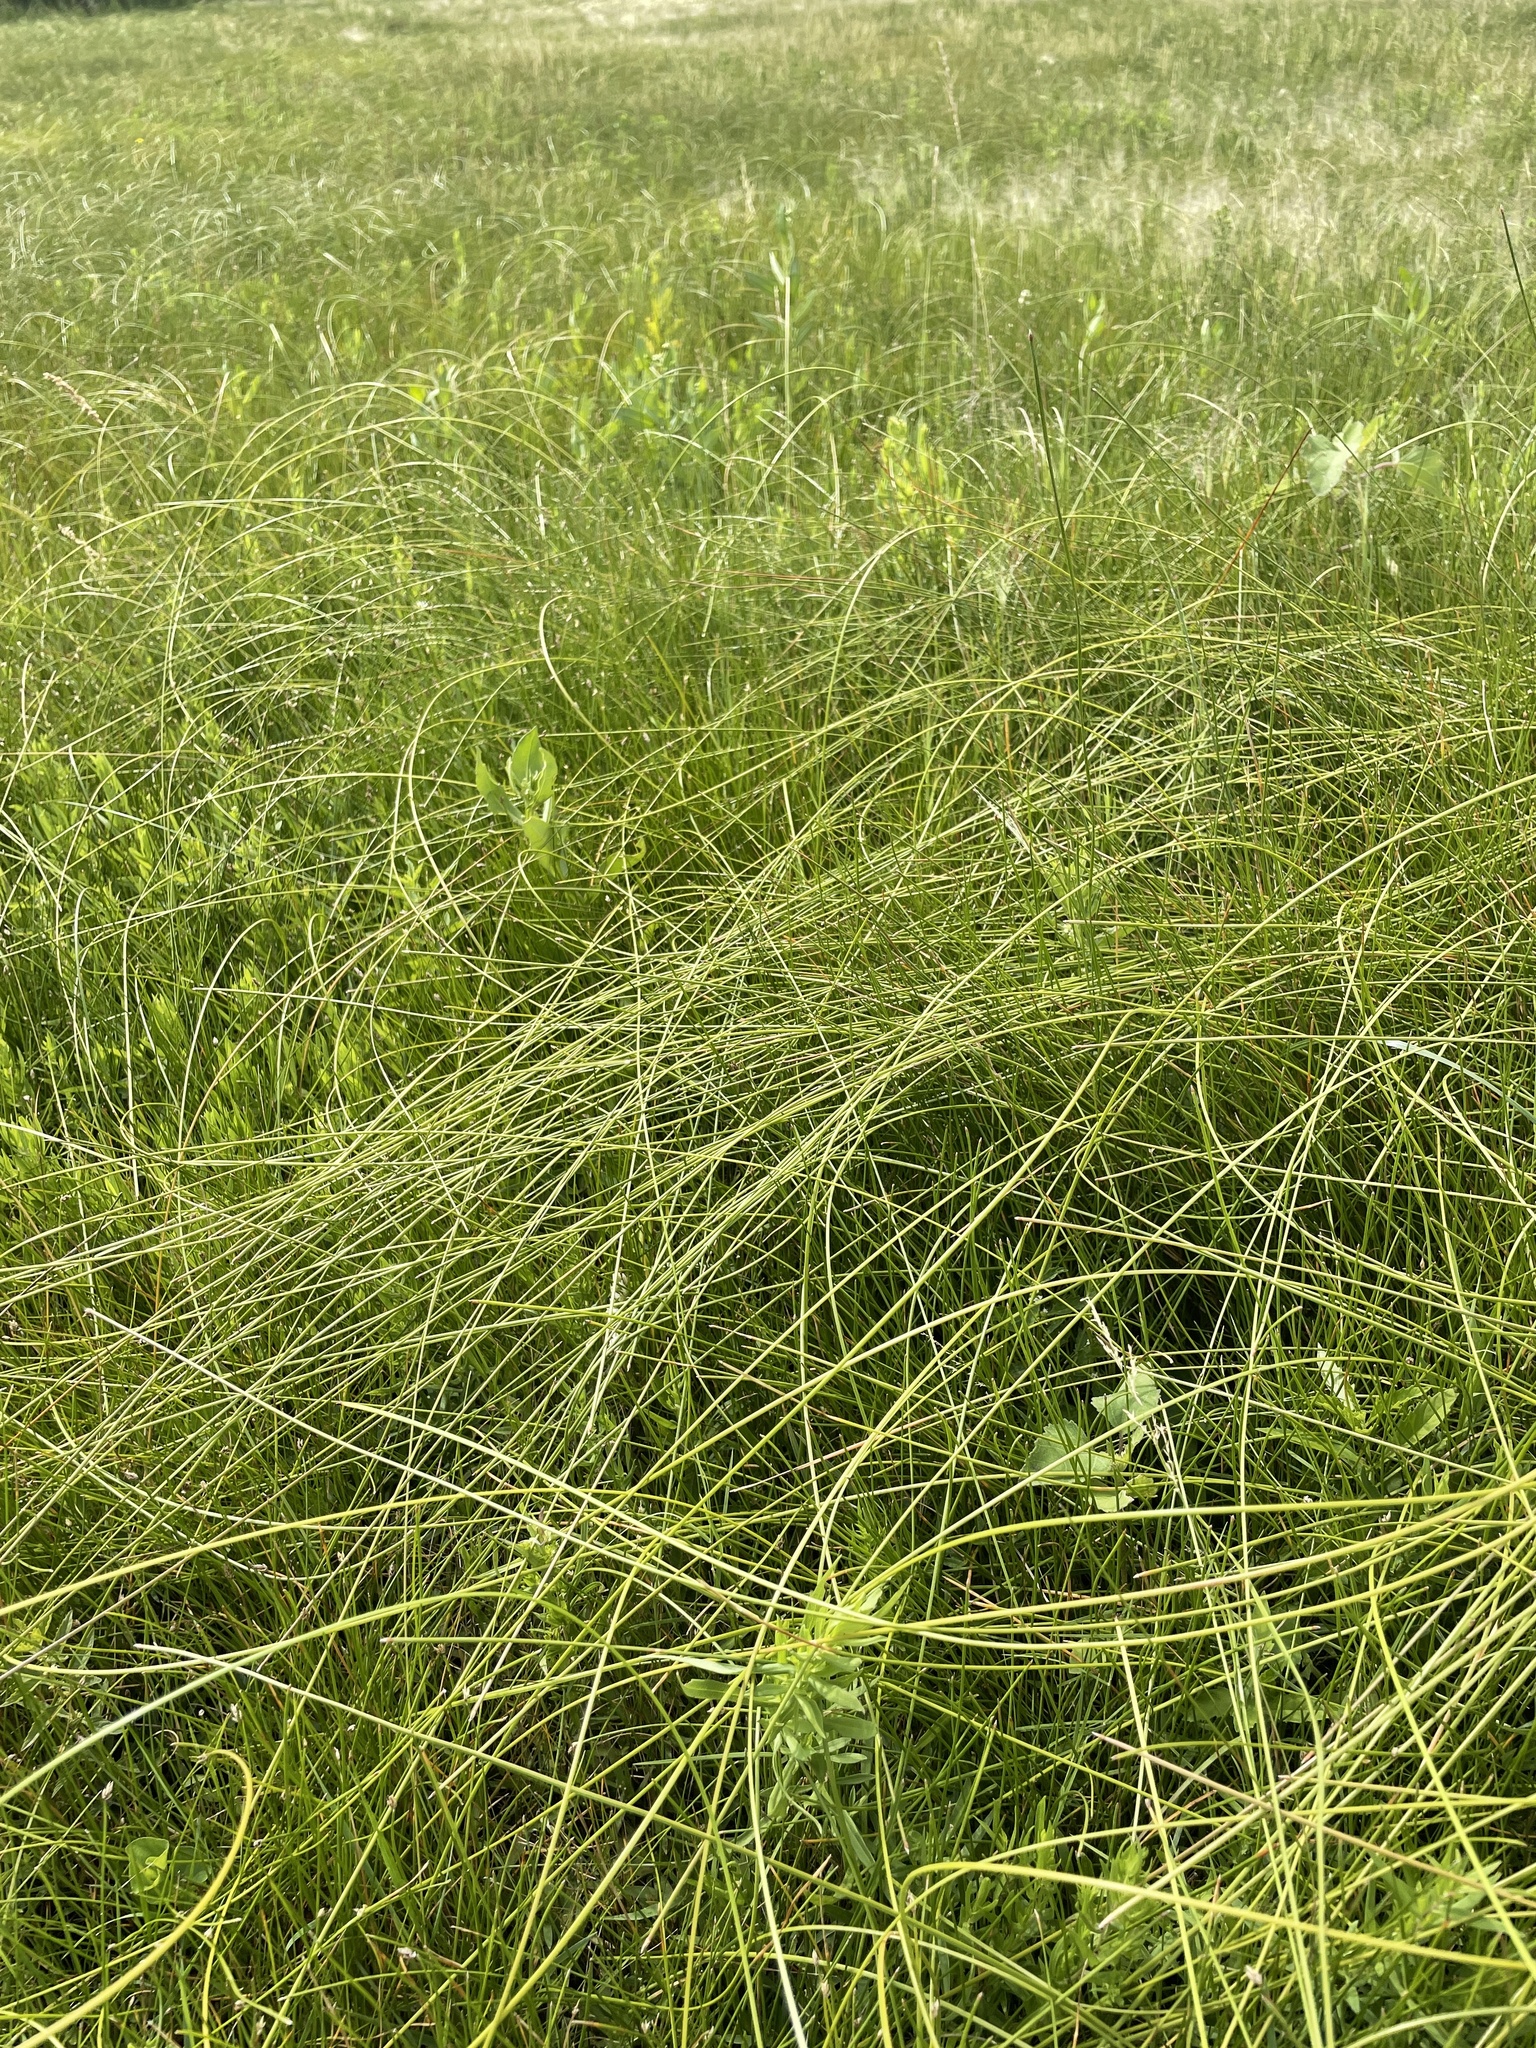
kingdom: Plantae
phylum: Tracheophyta
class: Liliopsida
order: Poales
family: Cyperaceae
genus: Eleocharis
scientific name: Eleocharis rostellata
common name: Walking sedge
